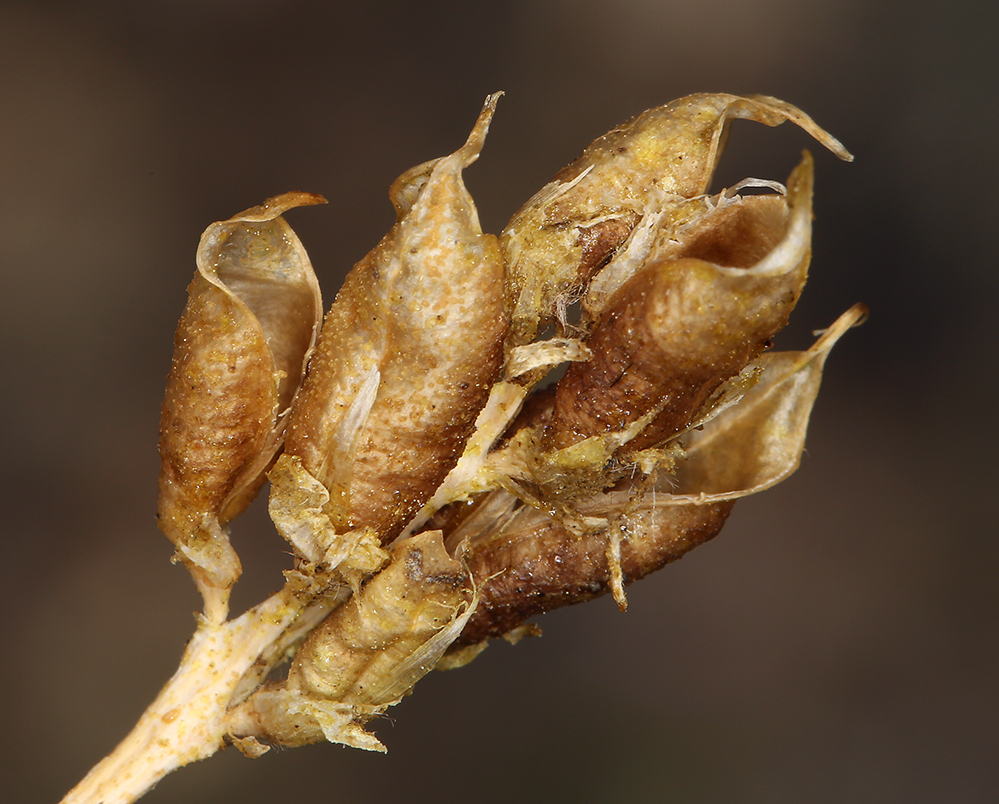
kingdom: Plantae
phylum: Tracheophyta
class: Magnoliopsida
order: Fabales
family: Fabaceae
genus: Oxytropis
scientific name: Oxytropis borealis
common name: Boreal locoweed
